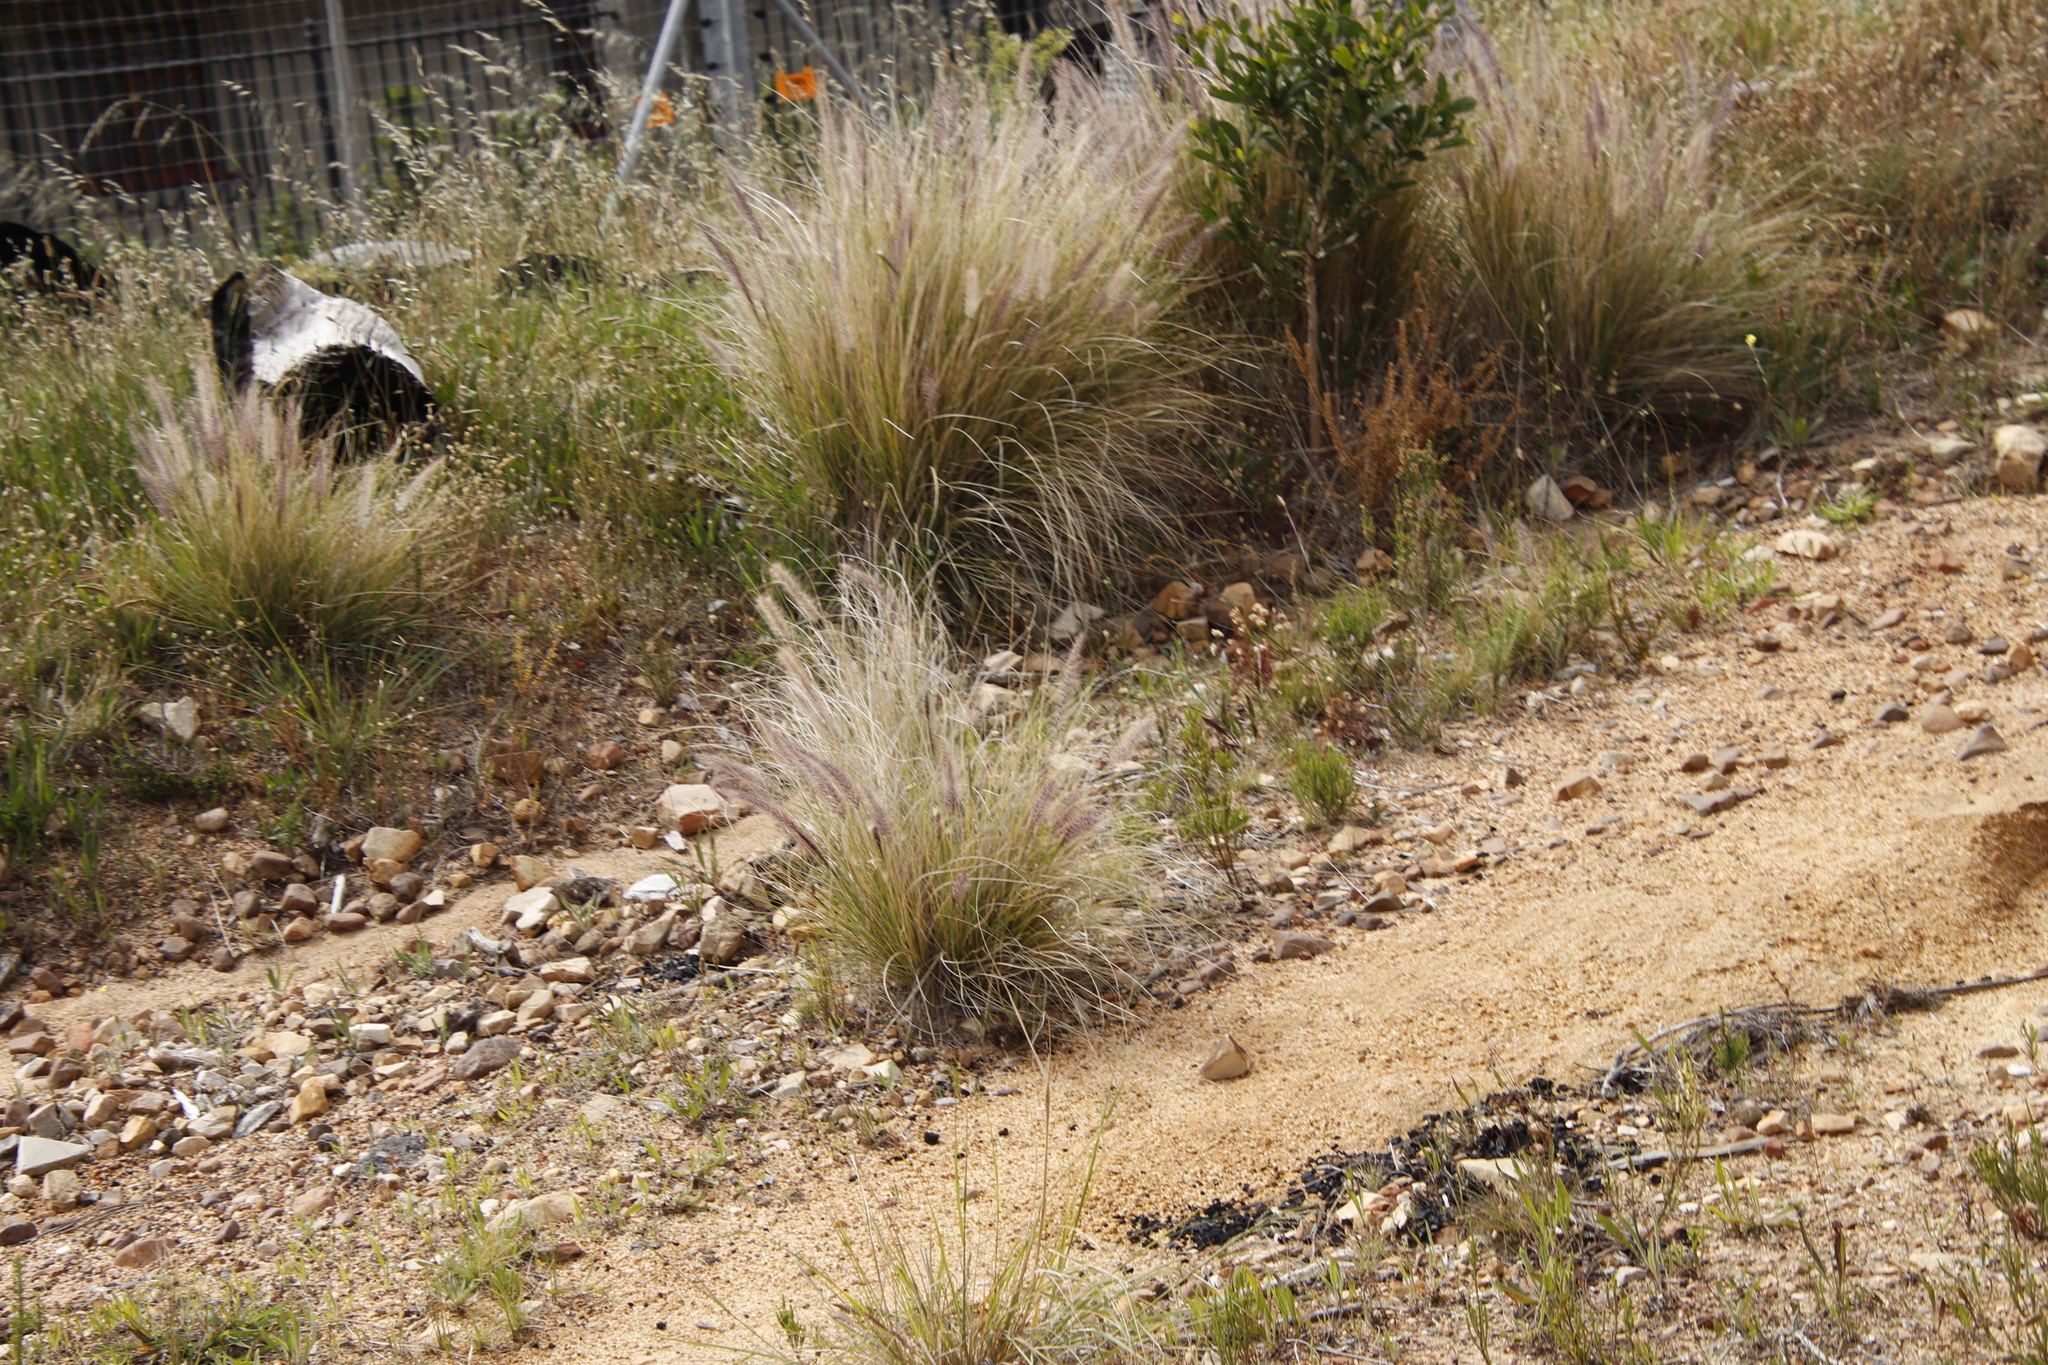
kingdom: Plantae
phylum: Tracheophyta
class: Liliopsida
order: Poales
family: Poaceae
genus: Cenchrus
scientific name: Cenchrus setaceus
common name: Crimson fountaingrass
